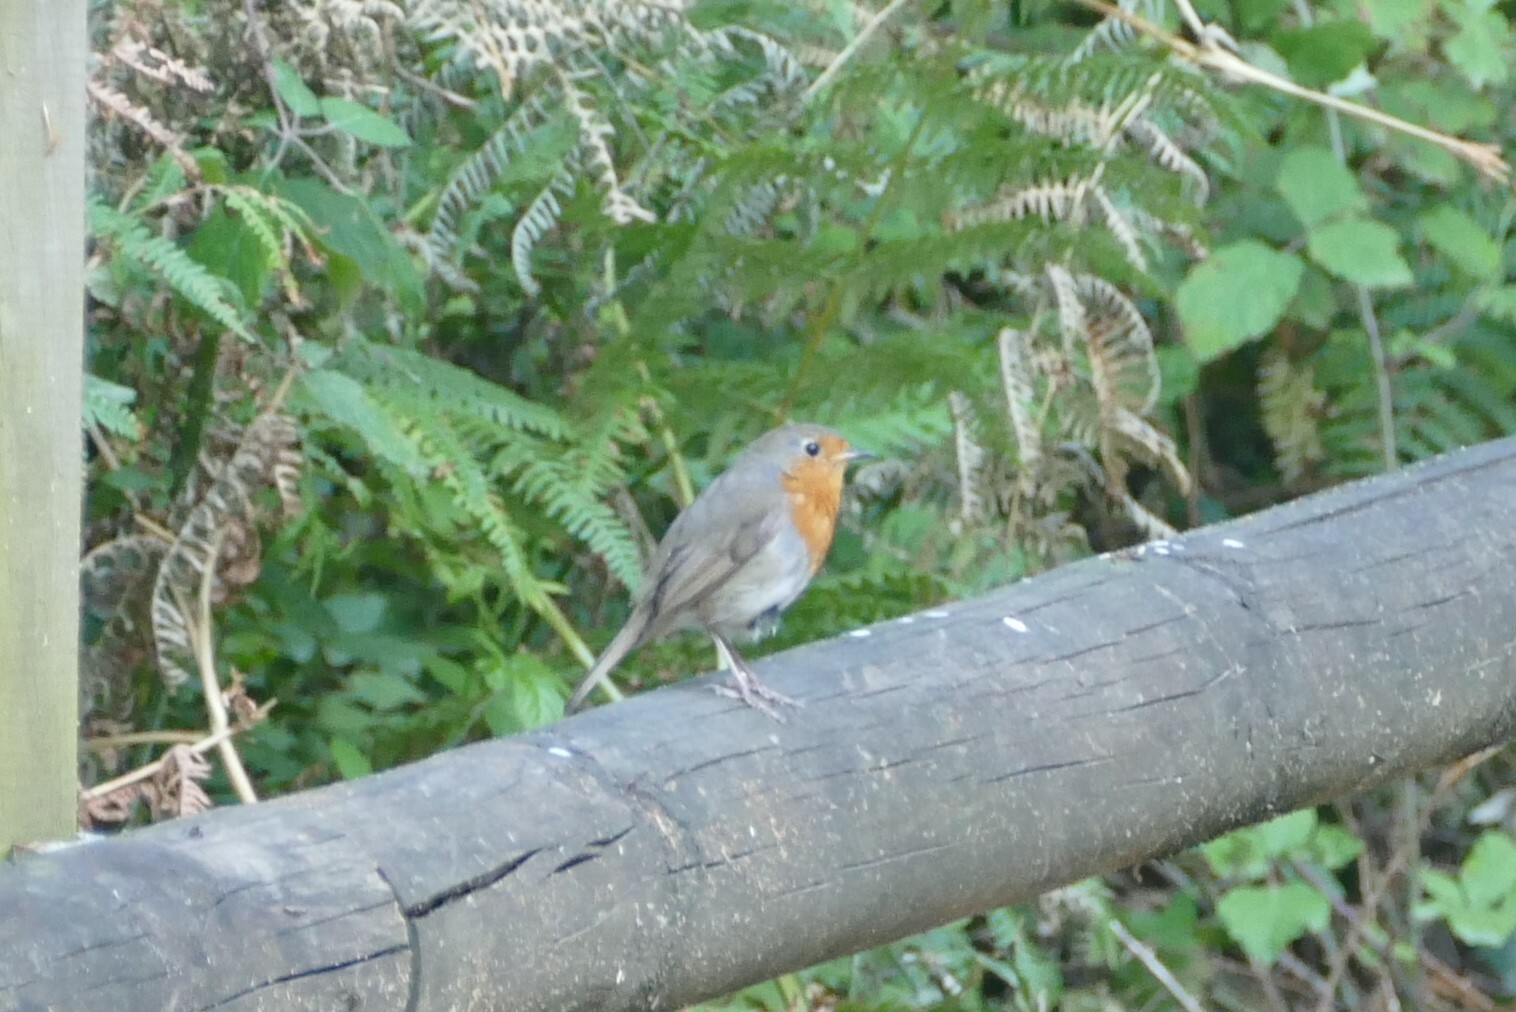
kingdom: Animalia
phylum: Chordata
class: Aves
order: Passeriformes
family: Muscicapidae
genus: Erithacus
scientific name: Erithacus rubecula
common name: European robin
